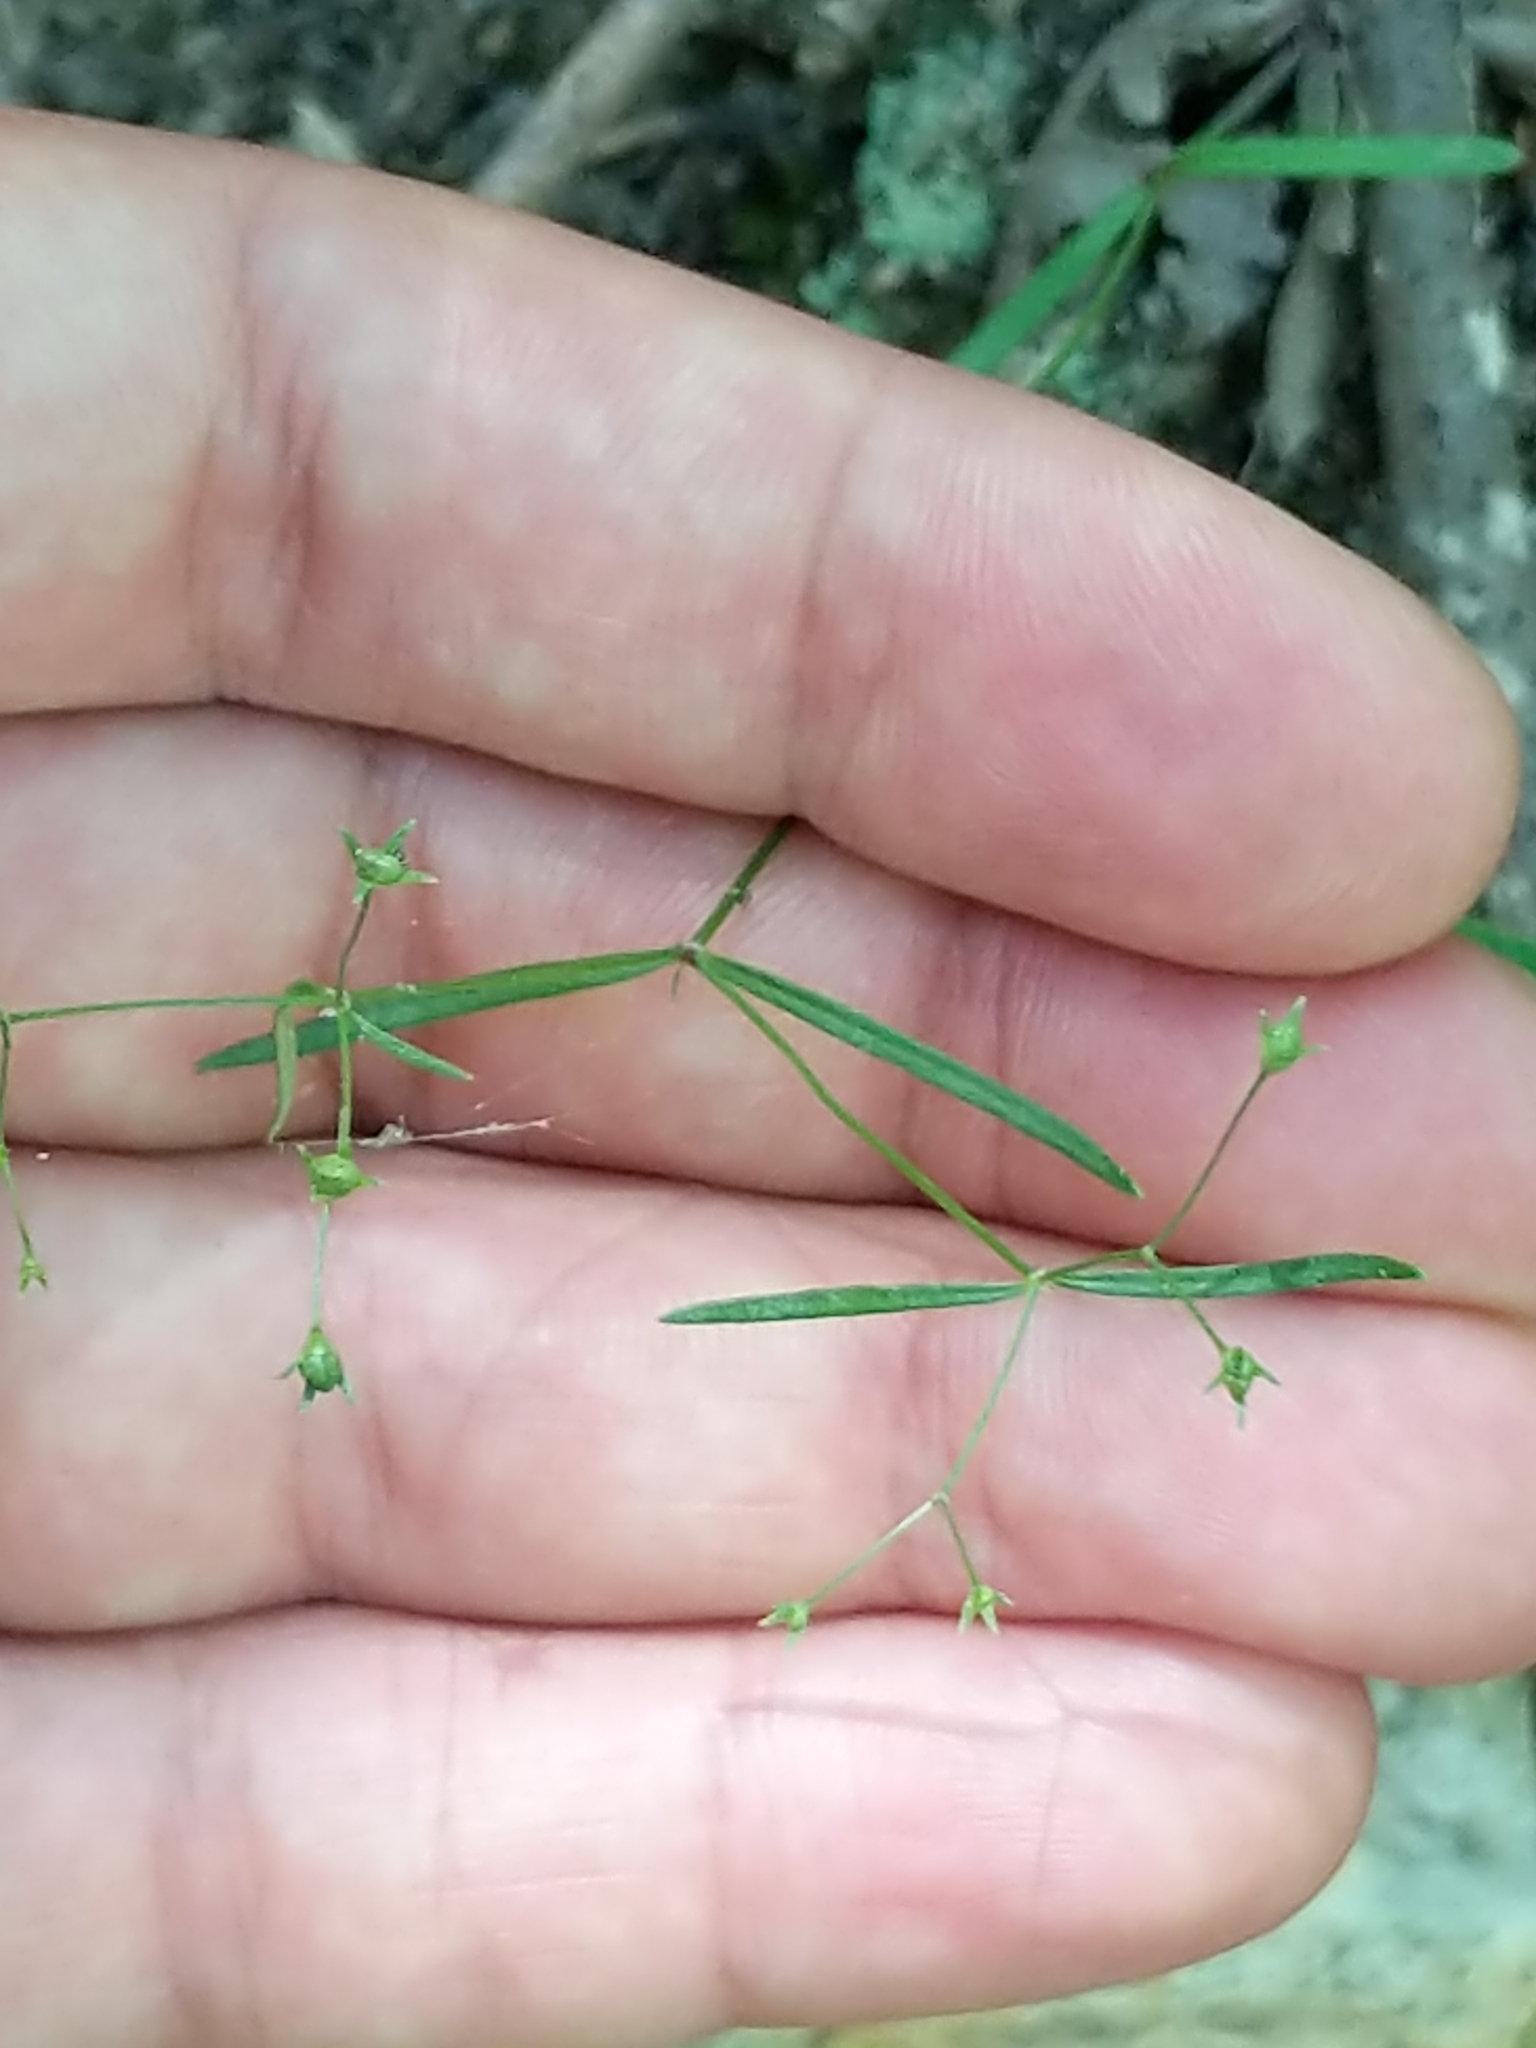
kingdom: Plantae
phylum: Tracheophyta
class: Magnoliopsida
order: Gentianales
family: Rubiaceae
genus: Houstonia
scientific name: Houstonia longifolia
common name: Long-leaved bluets
